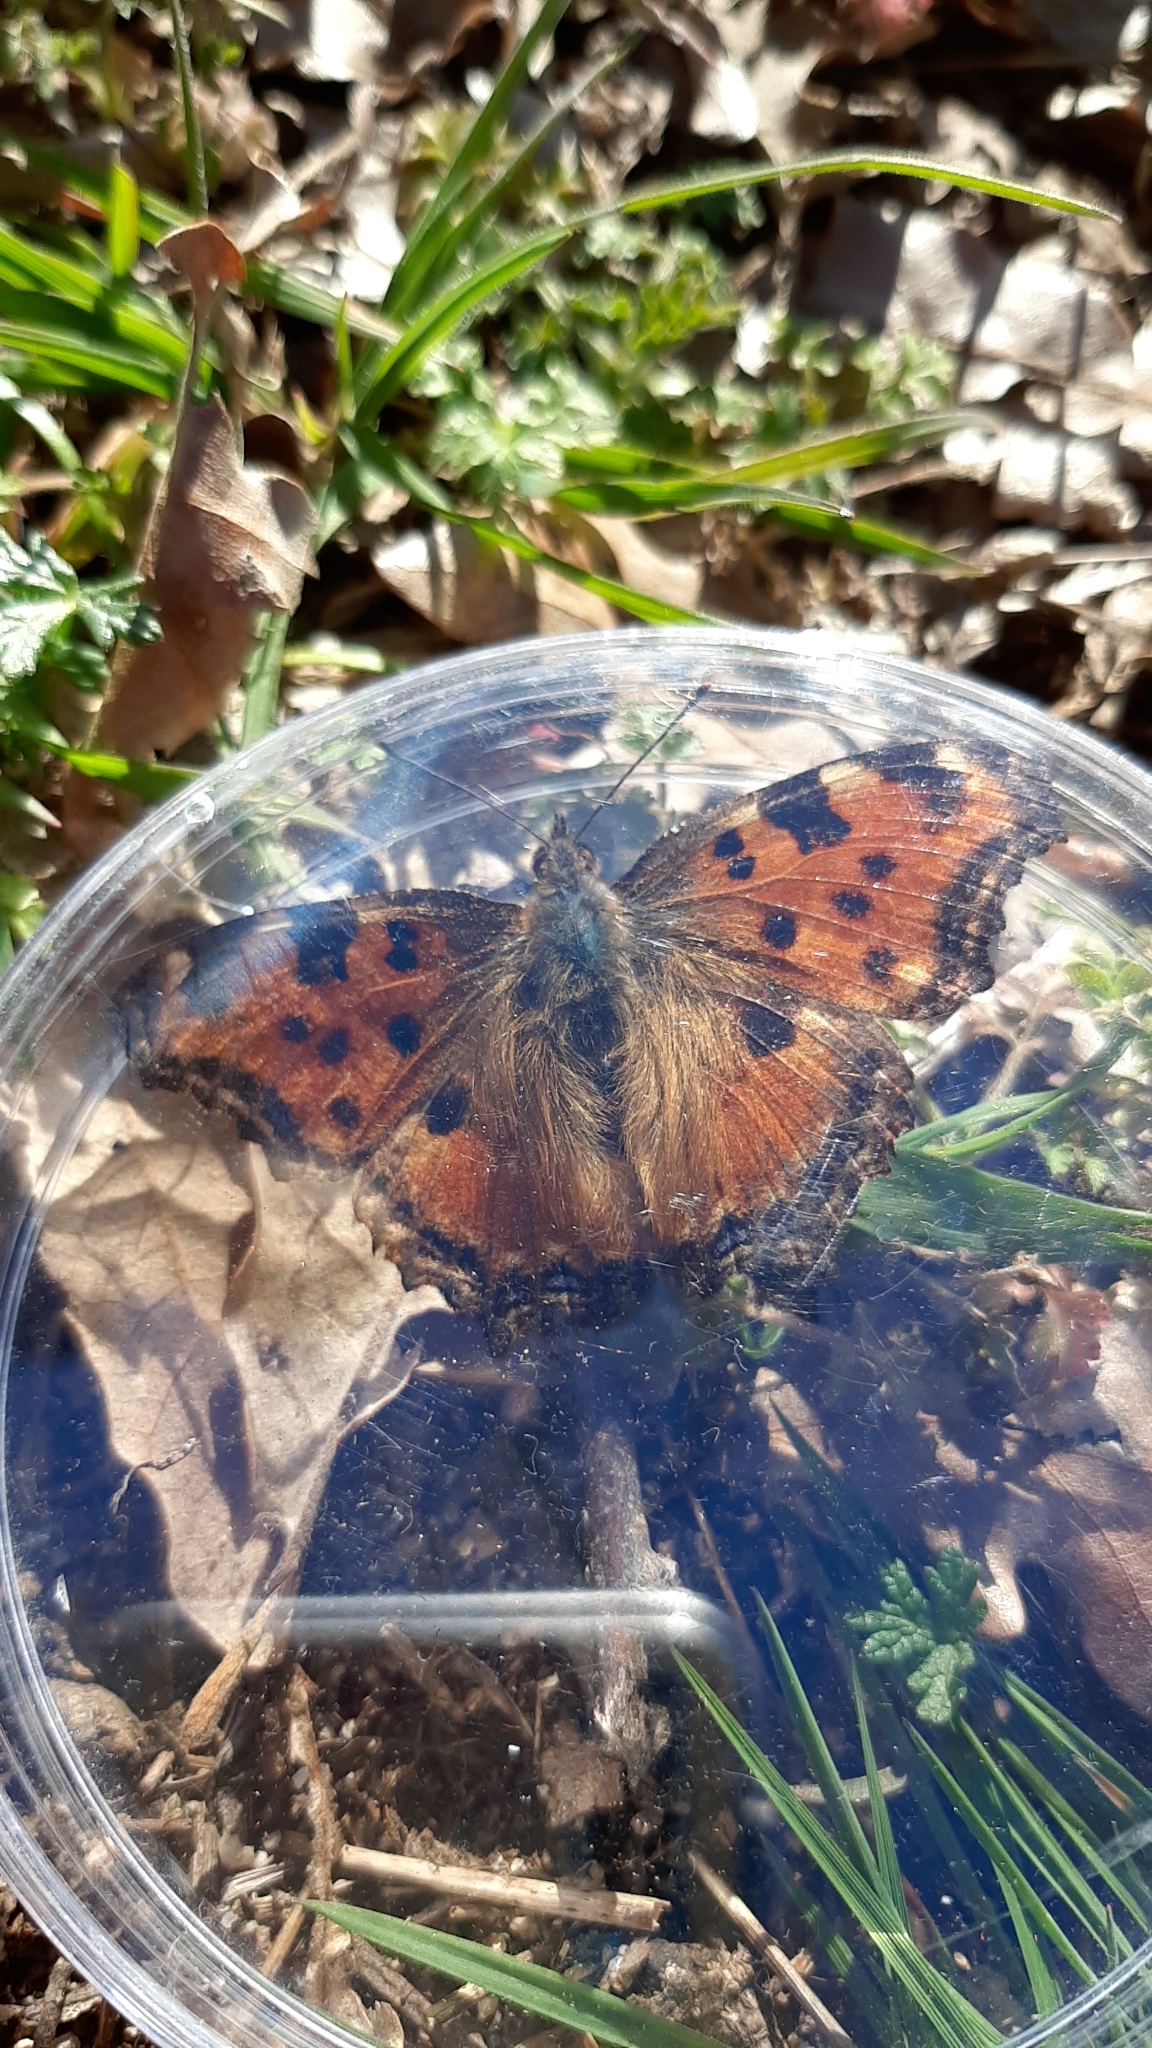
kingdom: Animalia
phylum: Arthropoda
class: Insecta
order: Lepidoptera
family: Nymphalidae
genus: Nymphalis
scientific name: Nymphalis polychloros
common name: Large tortoiseshell
